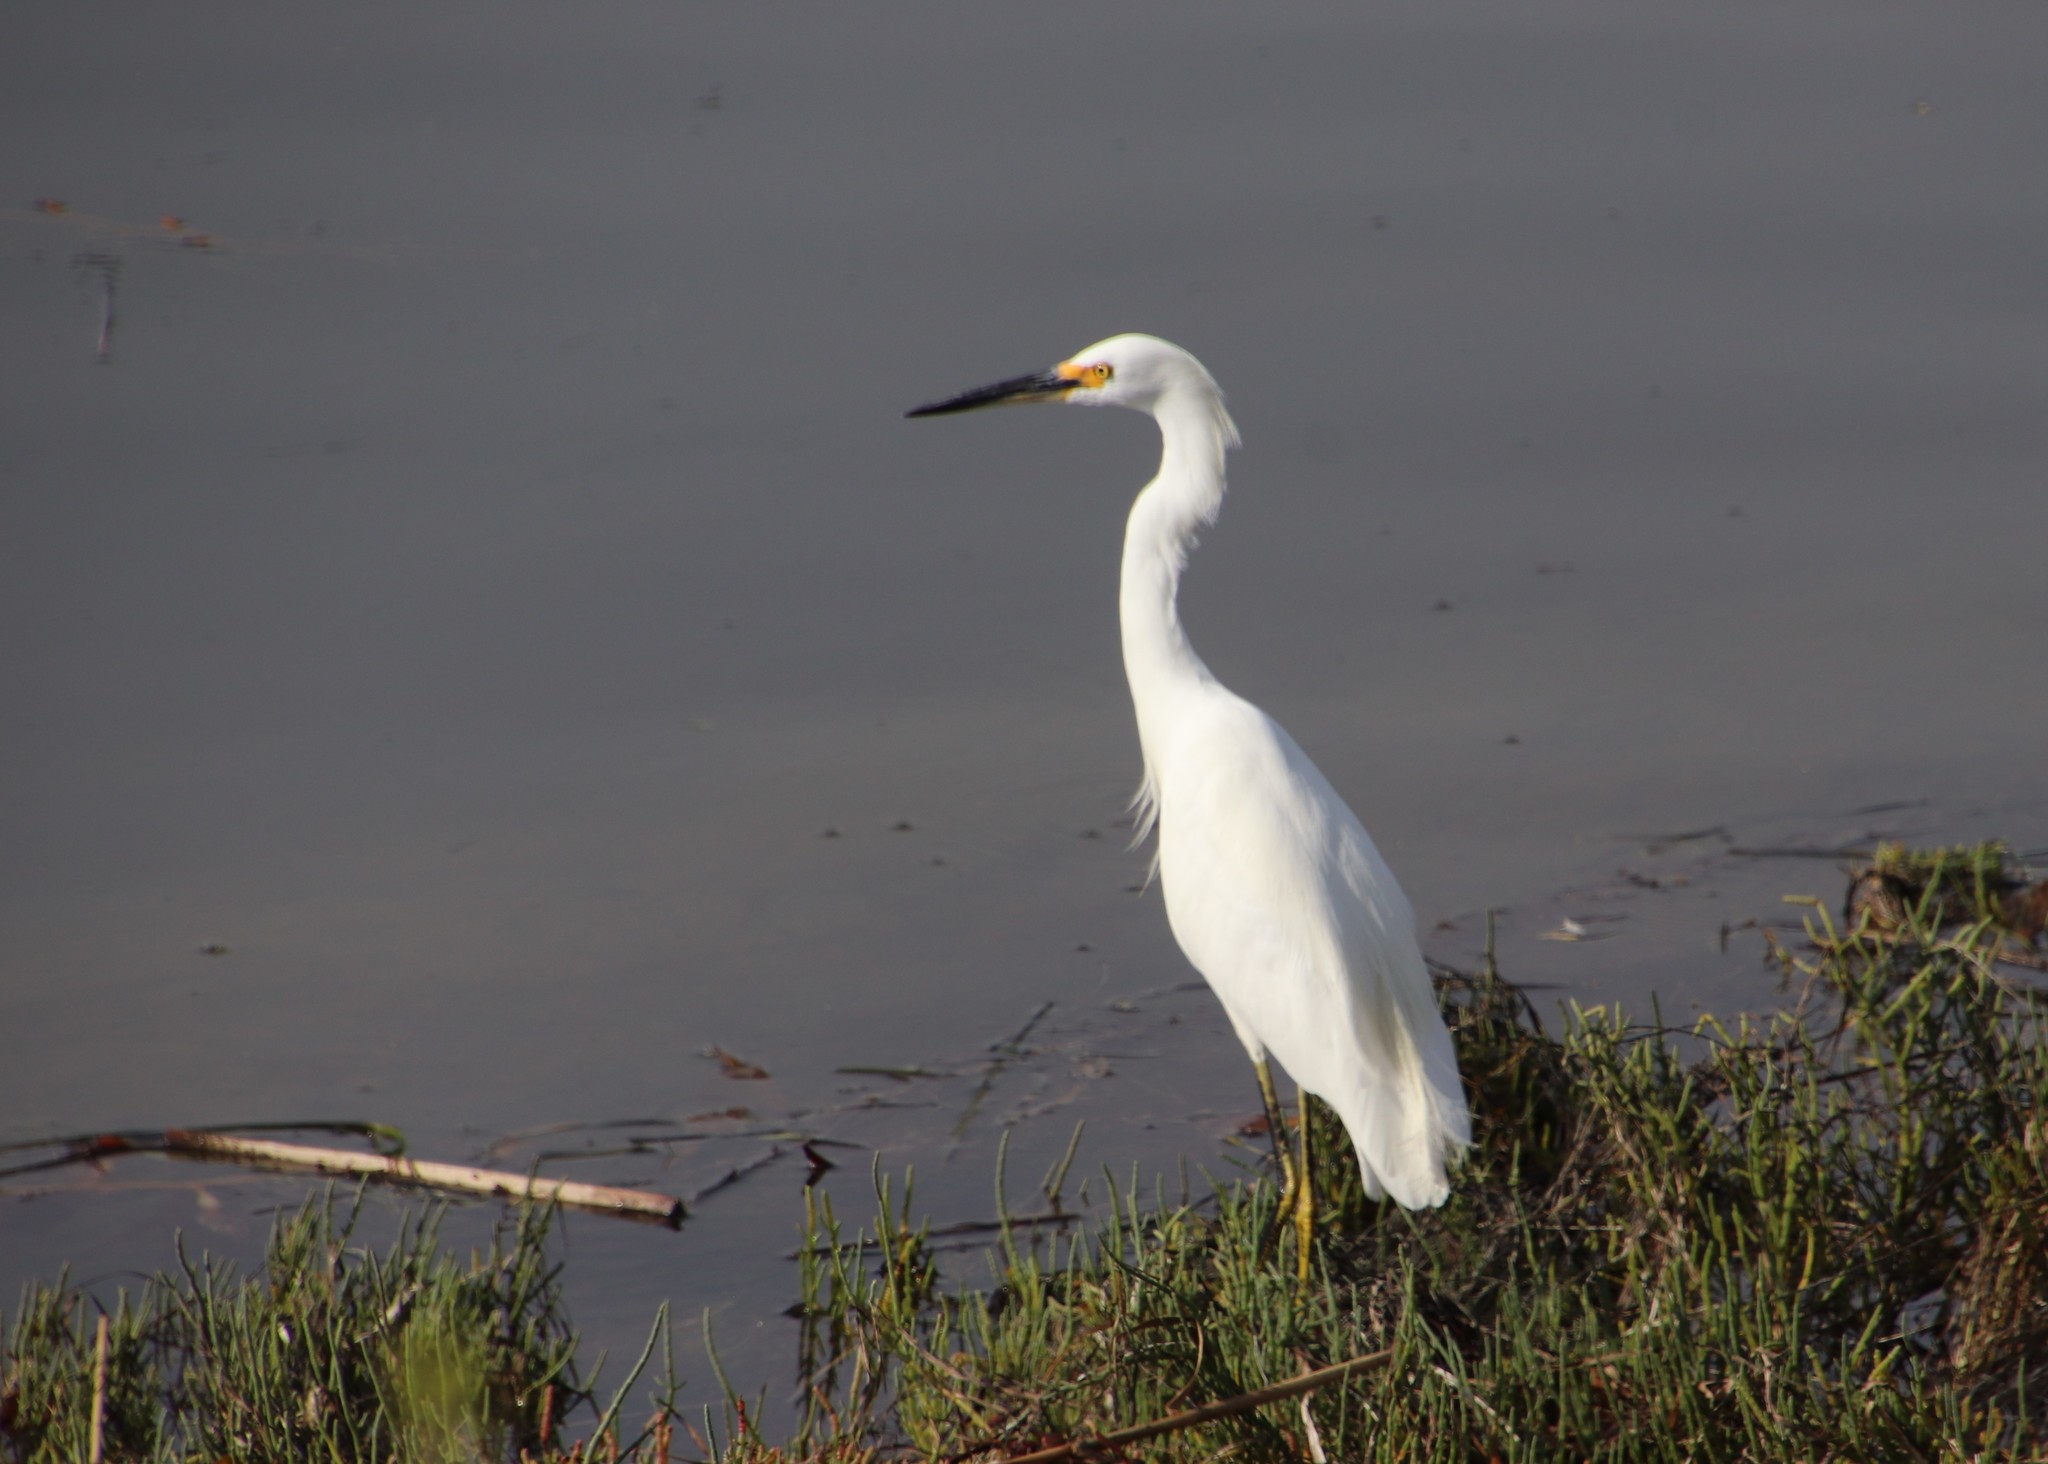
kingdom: Animalia
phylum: Chordata
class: Aves
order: Pelecaniformes
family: Ardeidae
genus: Egretta
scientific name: Egretta thula
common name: Snowy egret
